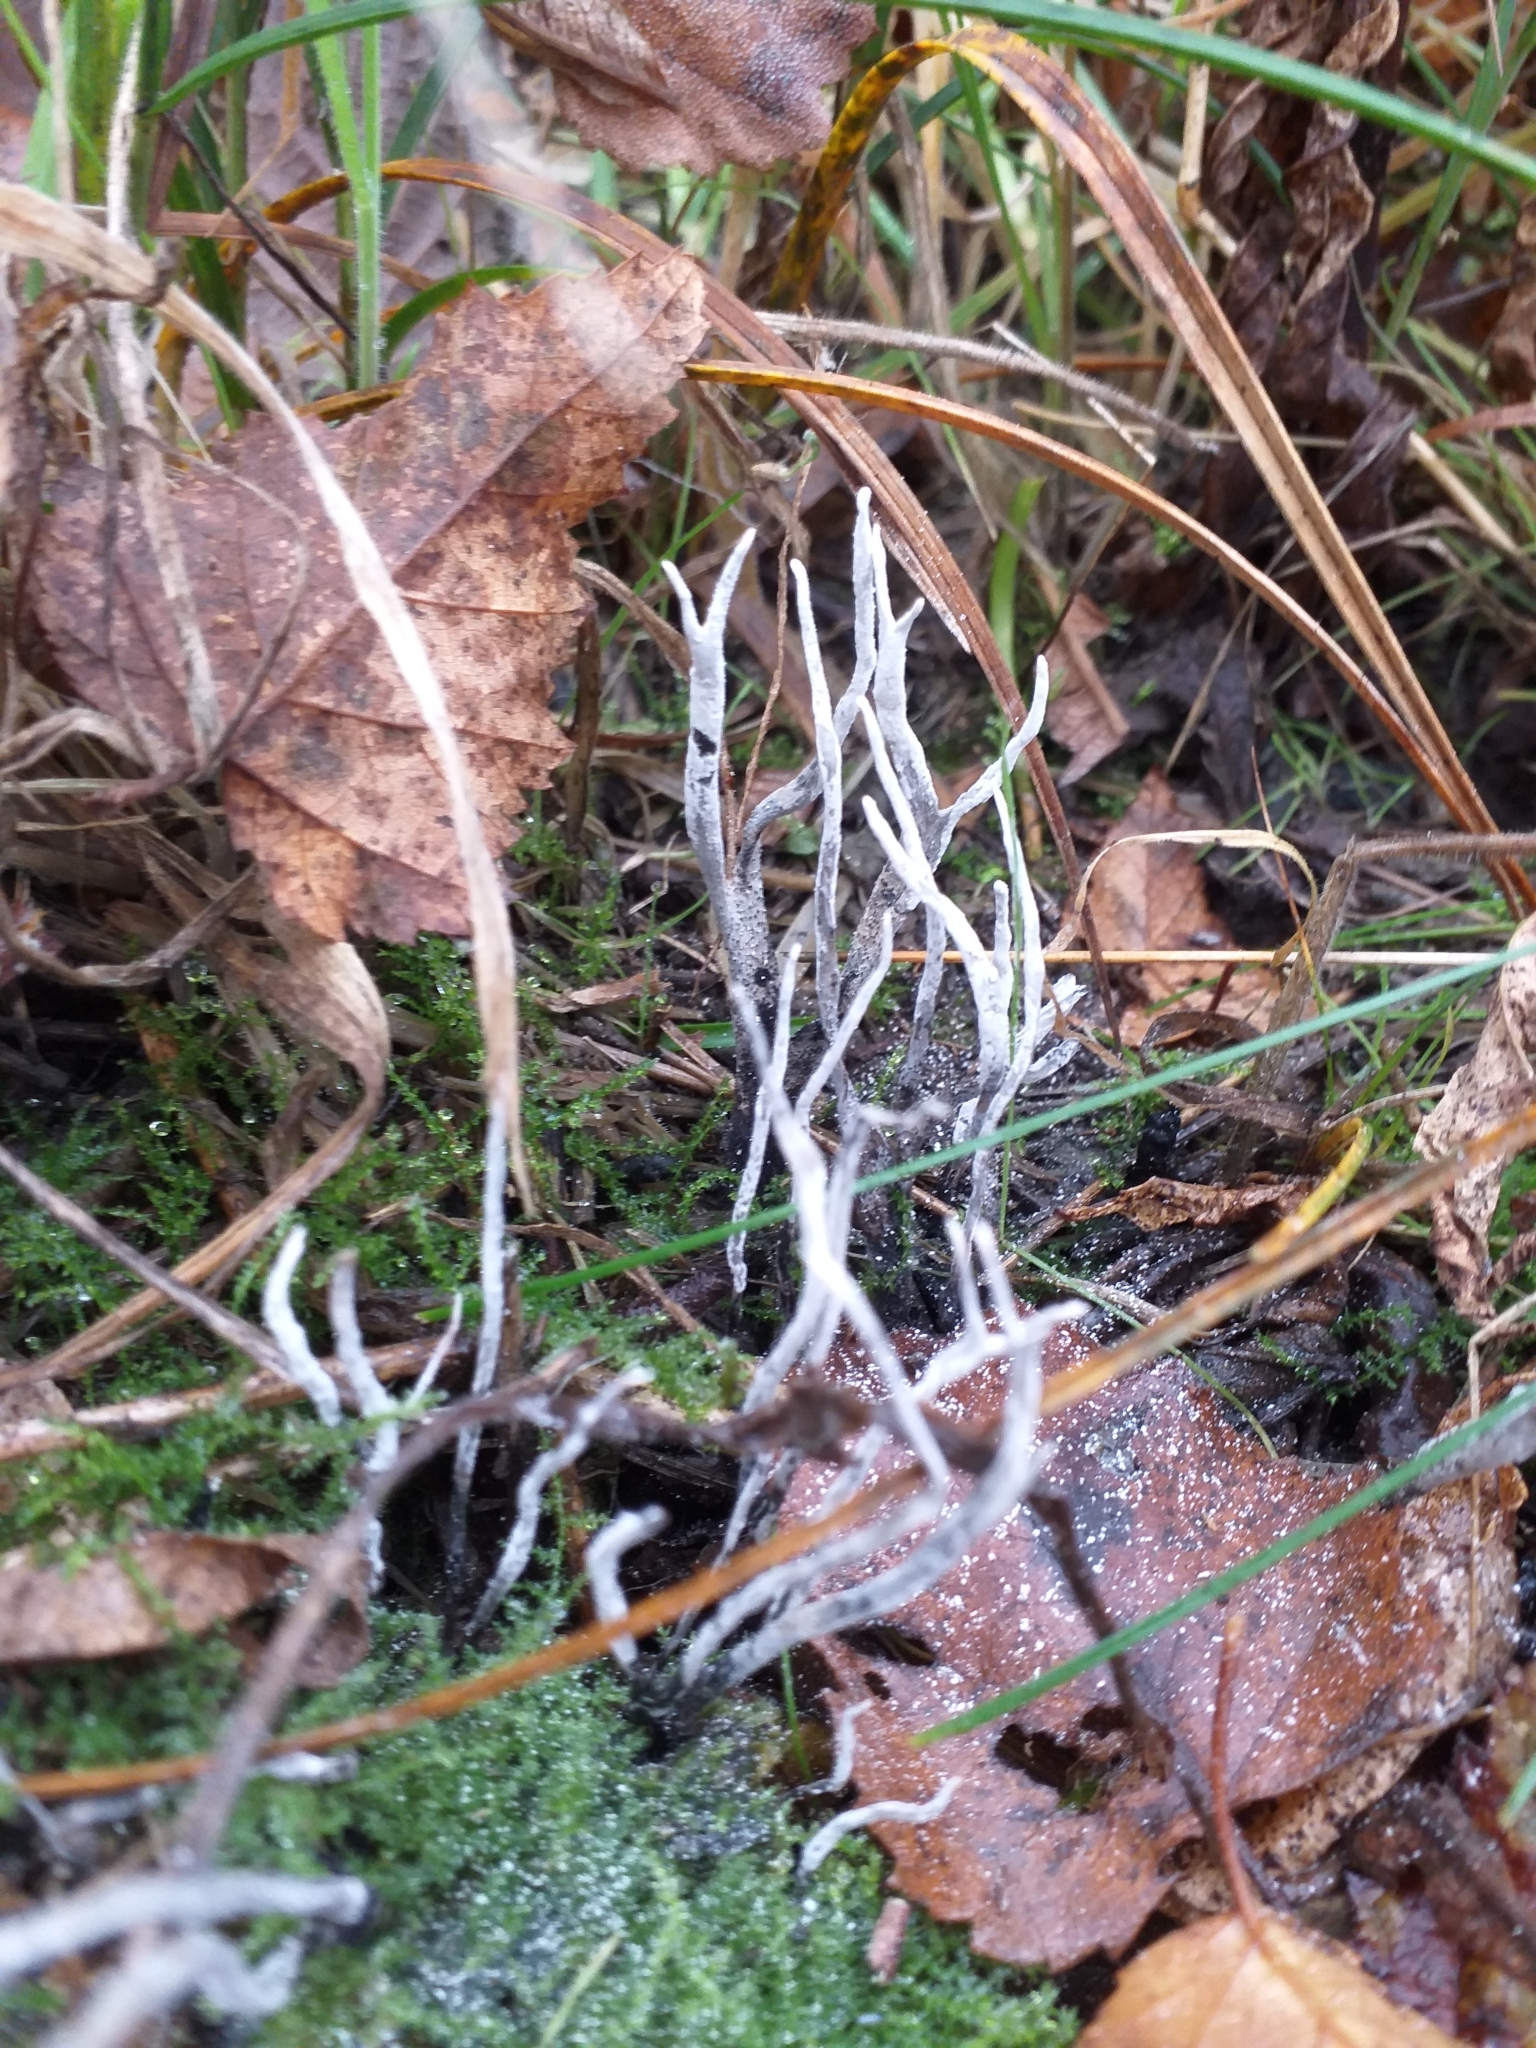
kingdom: Fungi
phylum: Ascomycota
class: Sordariomycetes
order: Xylariales
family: Xylariaceae
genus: Xylaria
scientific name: Xylaria hypoxylon
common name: Candle-snuff fungus
